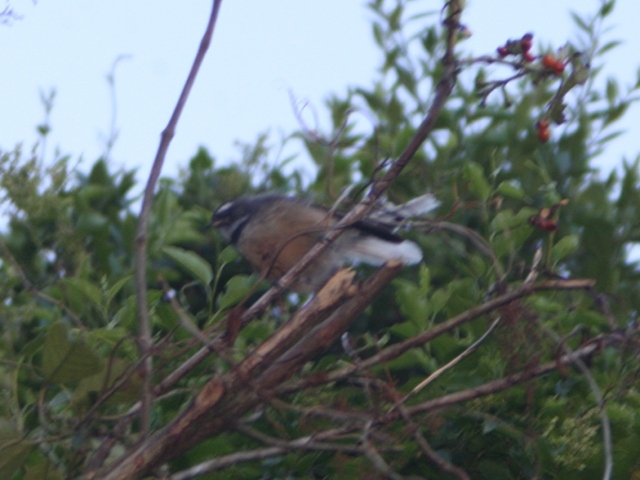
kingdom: Animalia
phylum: Chordata
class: Aves
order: Passeriformes
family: Rhipiduridae
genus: Rhipidura
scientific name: Rhipidura fuliginosa
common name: New zealand fantail
